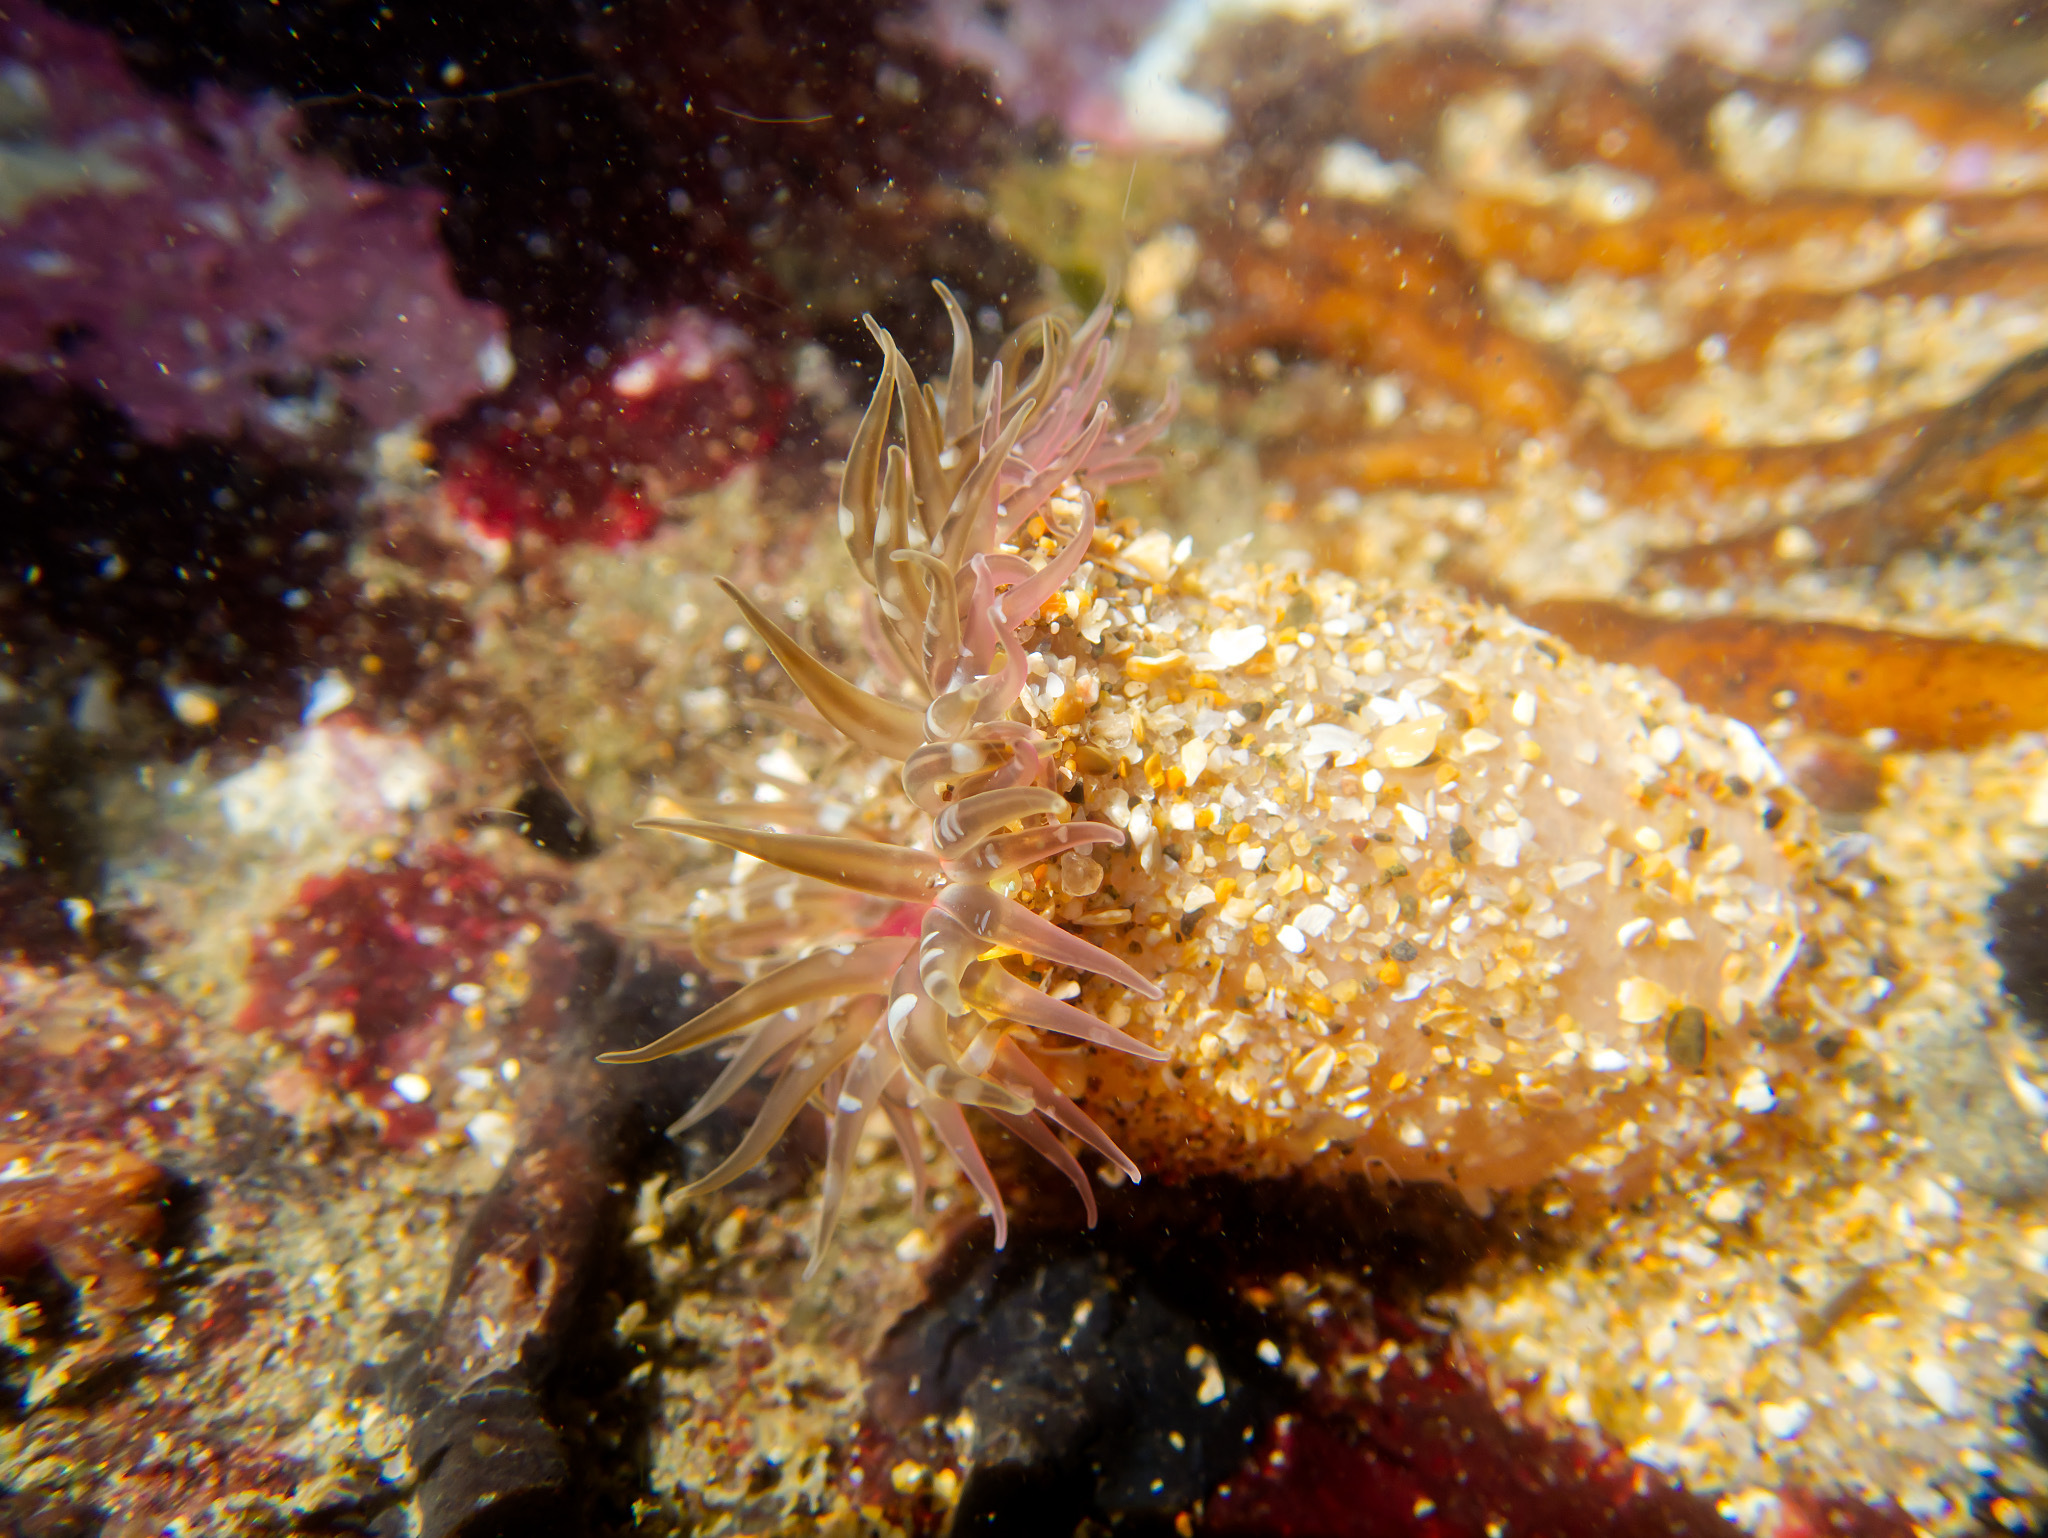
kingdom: Animalia
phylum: Cnidaria
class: Anthozoa
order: Actiniaria
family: Actiniidae
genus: Anthopleura
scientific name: Anthopleura artemisia
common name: Buried sea anemone
